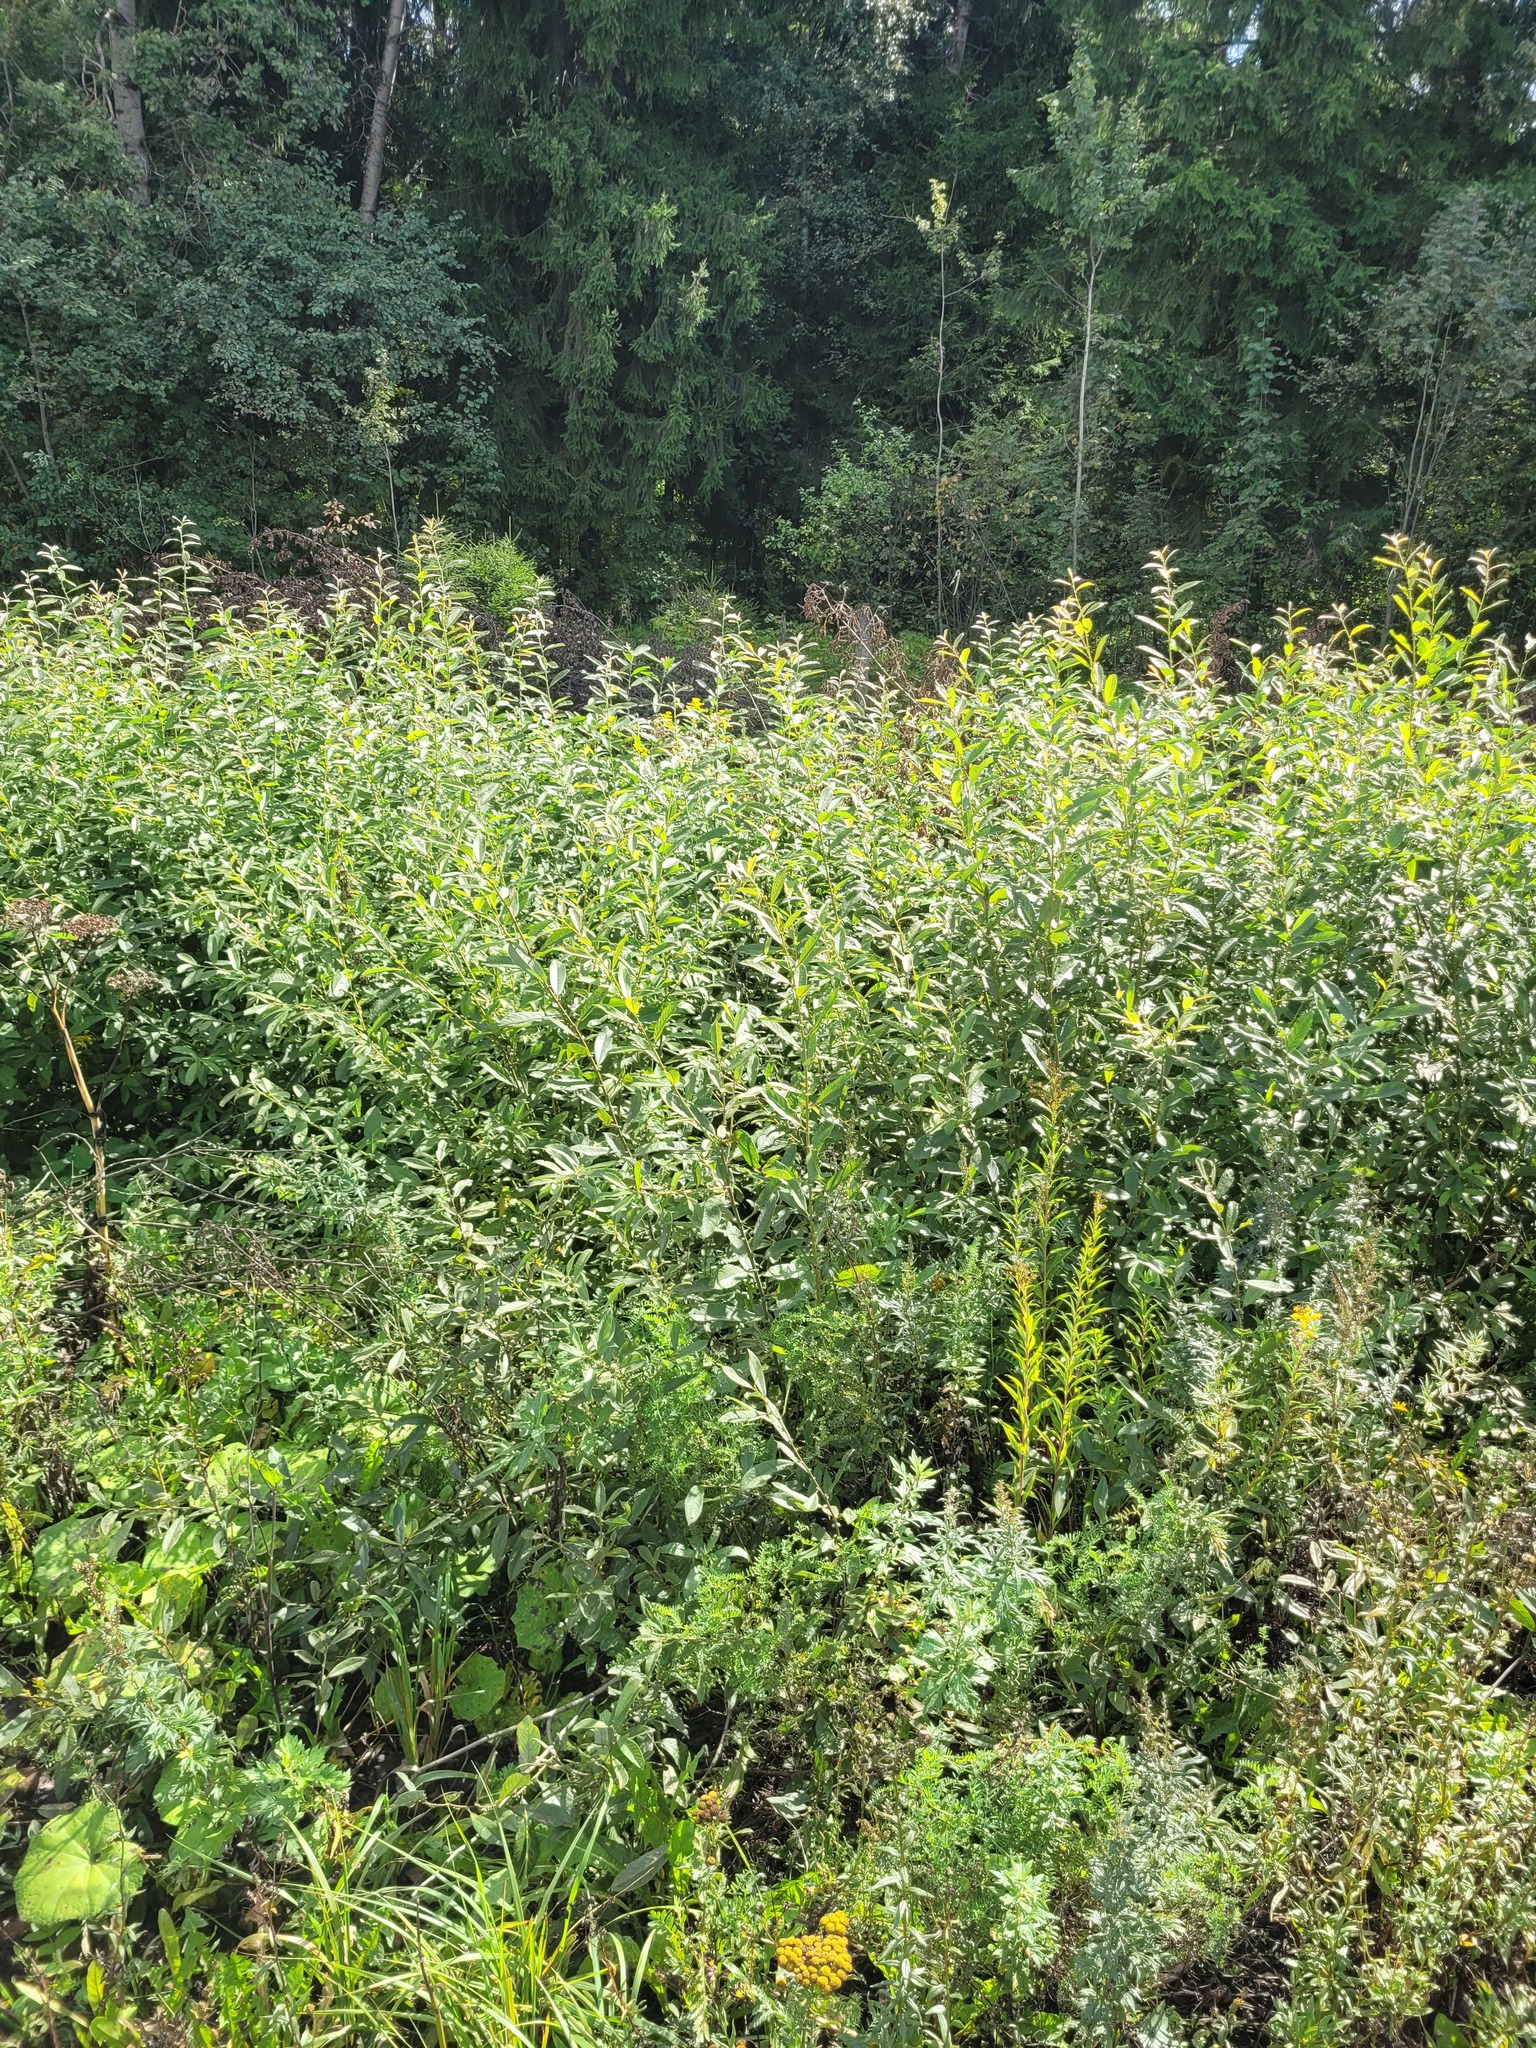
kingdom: Plantae
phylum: Tracheophyta
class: Magnoliopsida
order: Malpighiales
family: Salicaceae
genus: Salix
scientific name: Salix cinerea
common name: Common sallow
